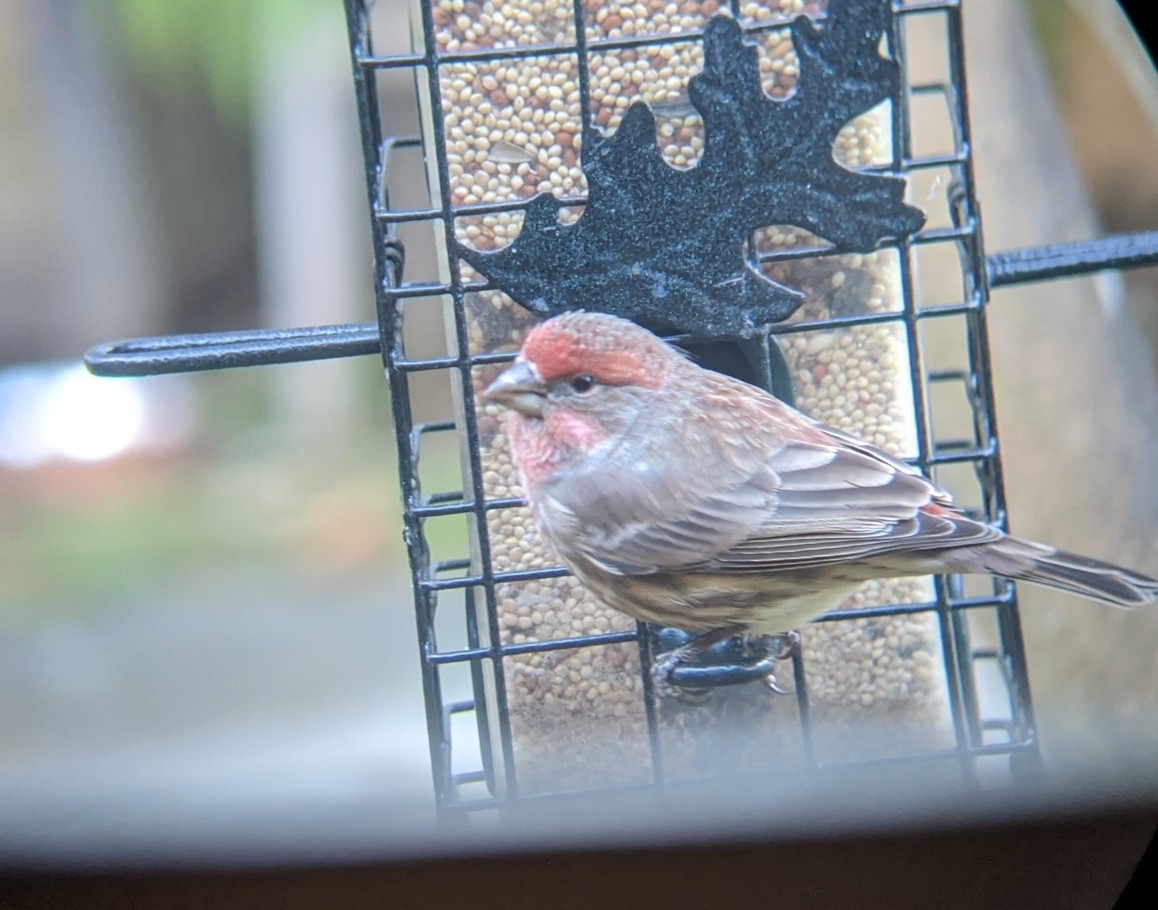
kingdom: Animalia
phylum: Chordata
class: Aves
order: Passeriformes
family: Fringillidae
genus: Haemorhous
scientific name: Haemorhous mexicanus
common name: House finch
